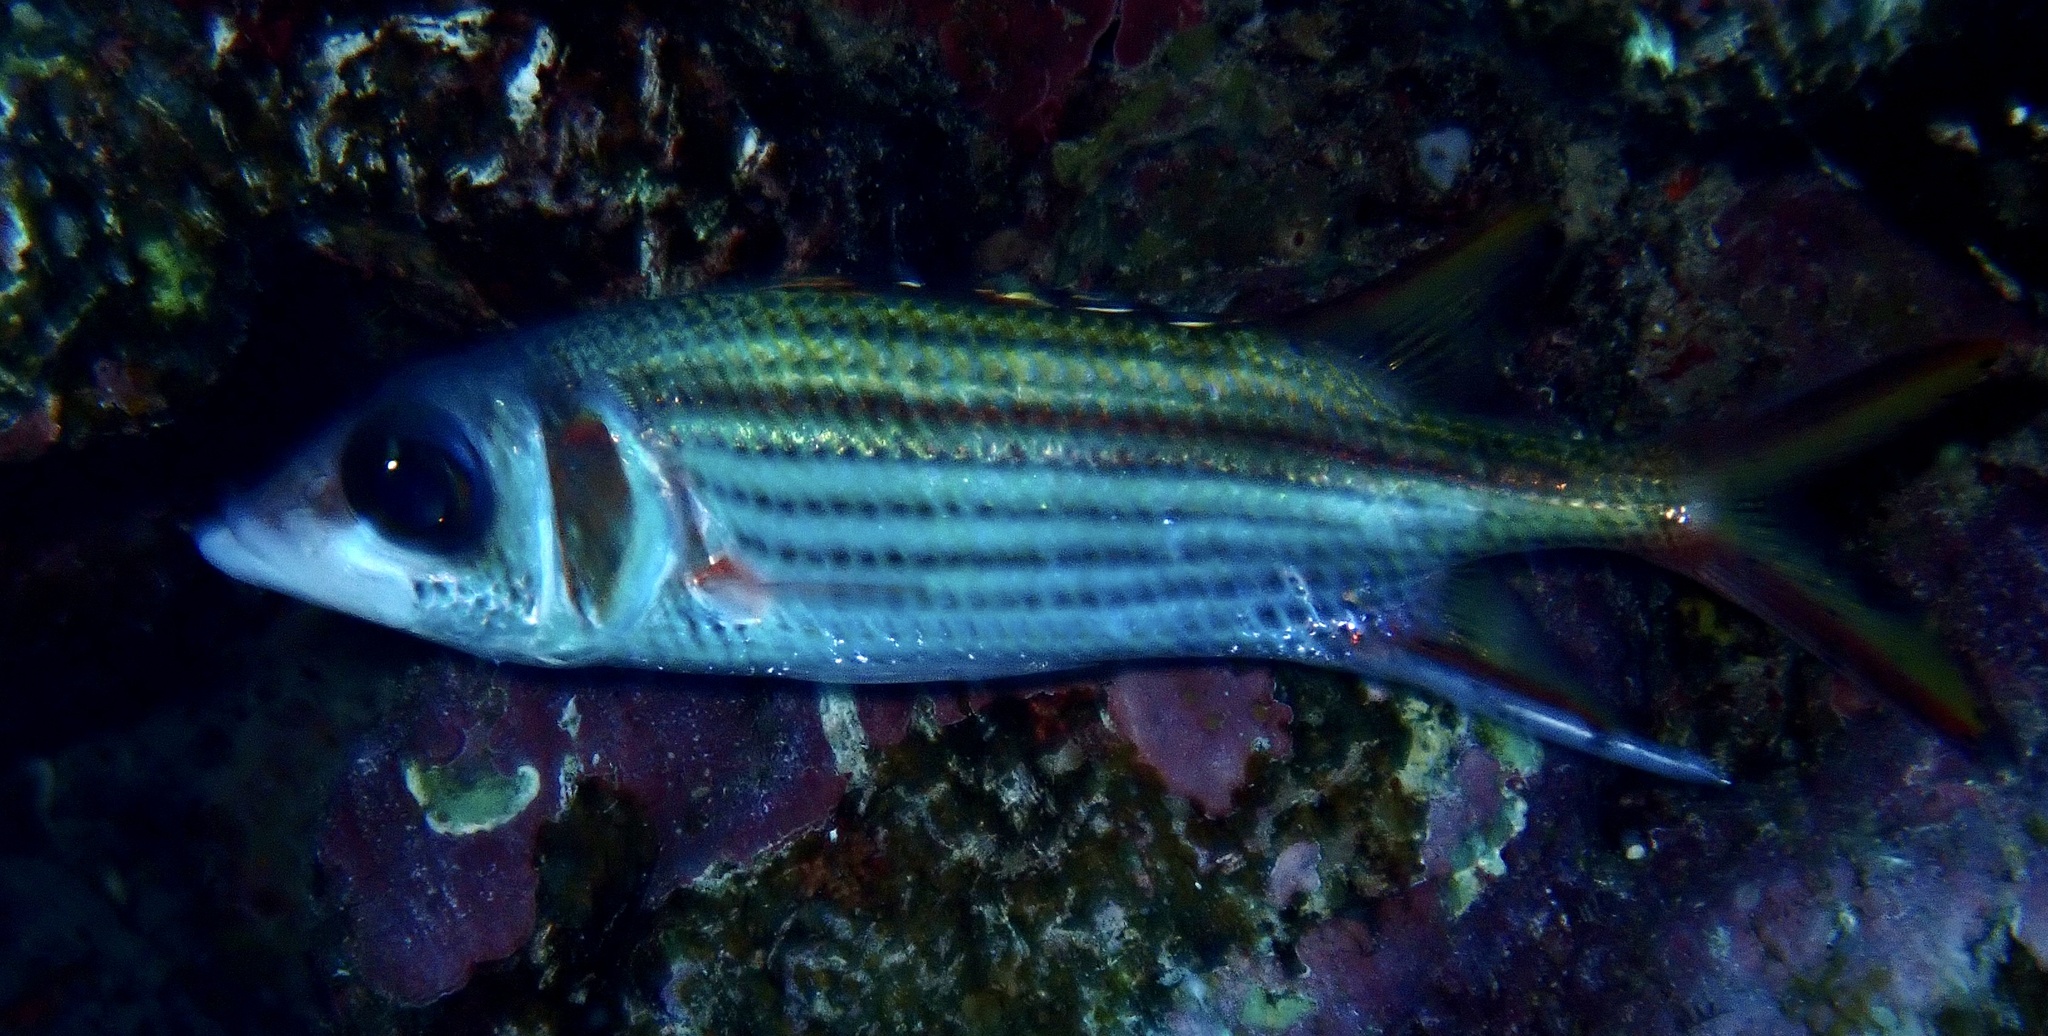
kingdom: Animalia
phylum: Chordata
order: Beryciformes
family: Holocentridae
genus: Neoniphon
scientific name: Neoniphon sammara
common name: Sammara squirrelfish
